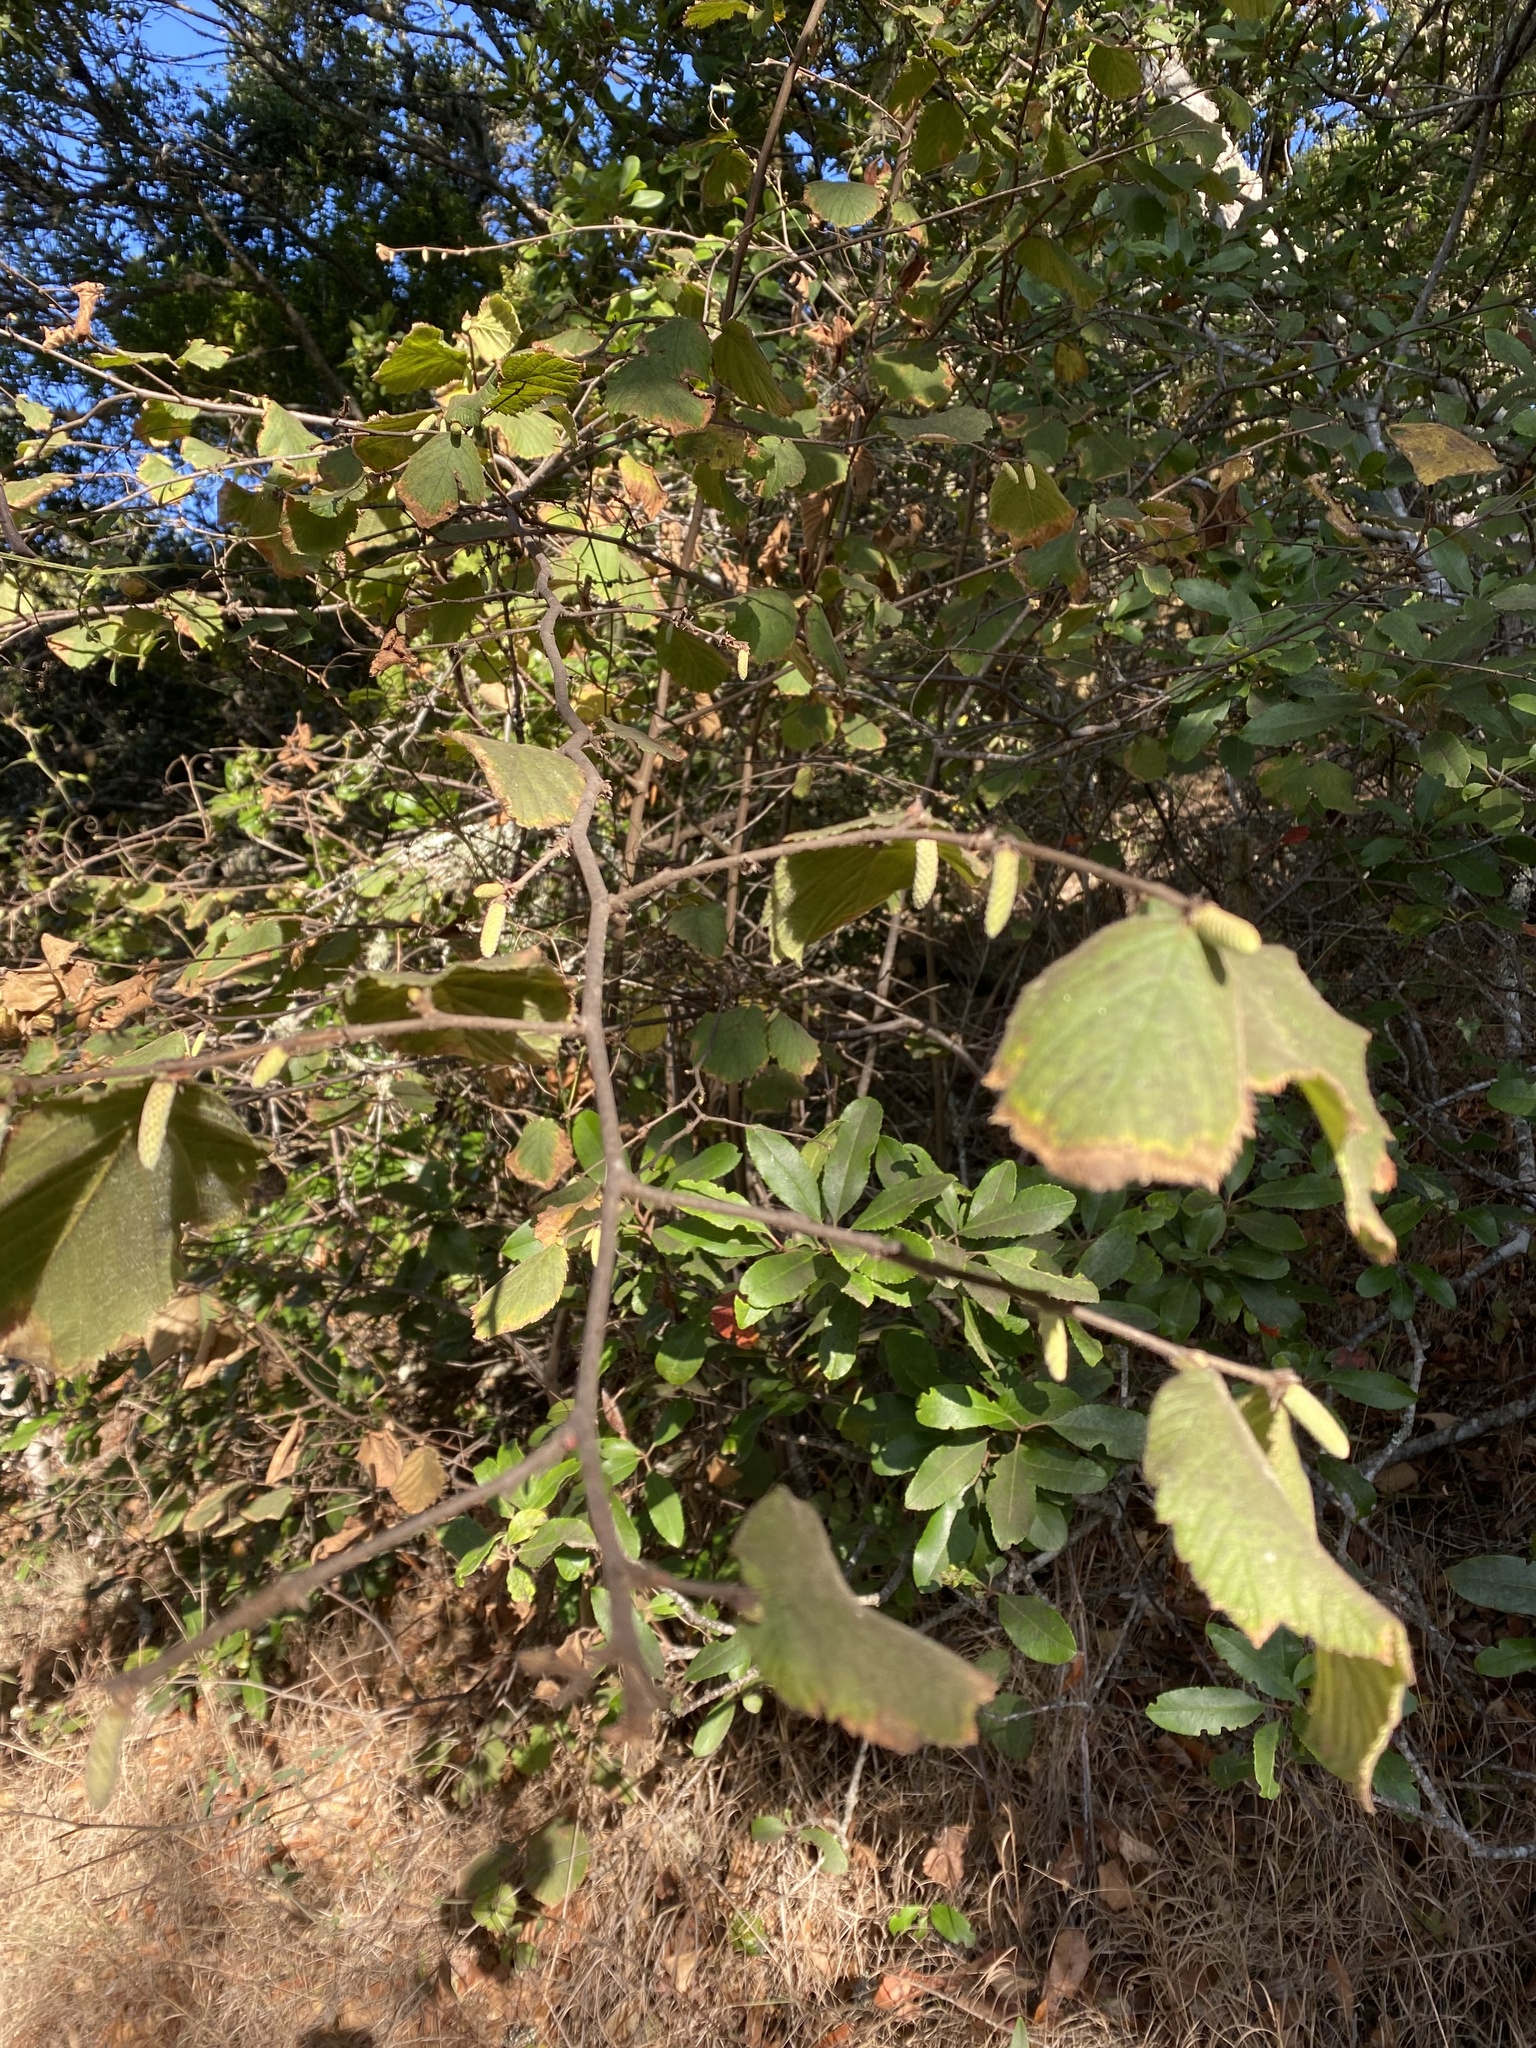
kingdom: Plantae
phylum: Tracheophyta
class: Magnoliopsida
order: Fagales
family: Betulaceae
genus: Corylus
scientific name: Corylus cornuta
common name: Beaked hazel
